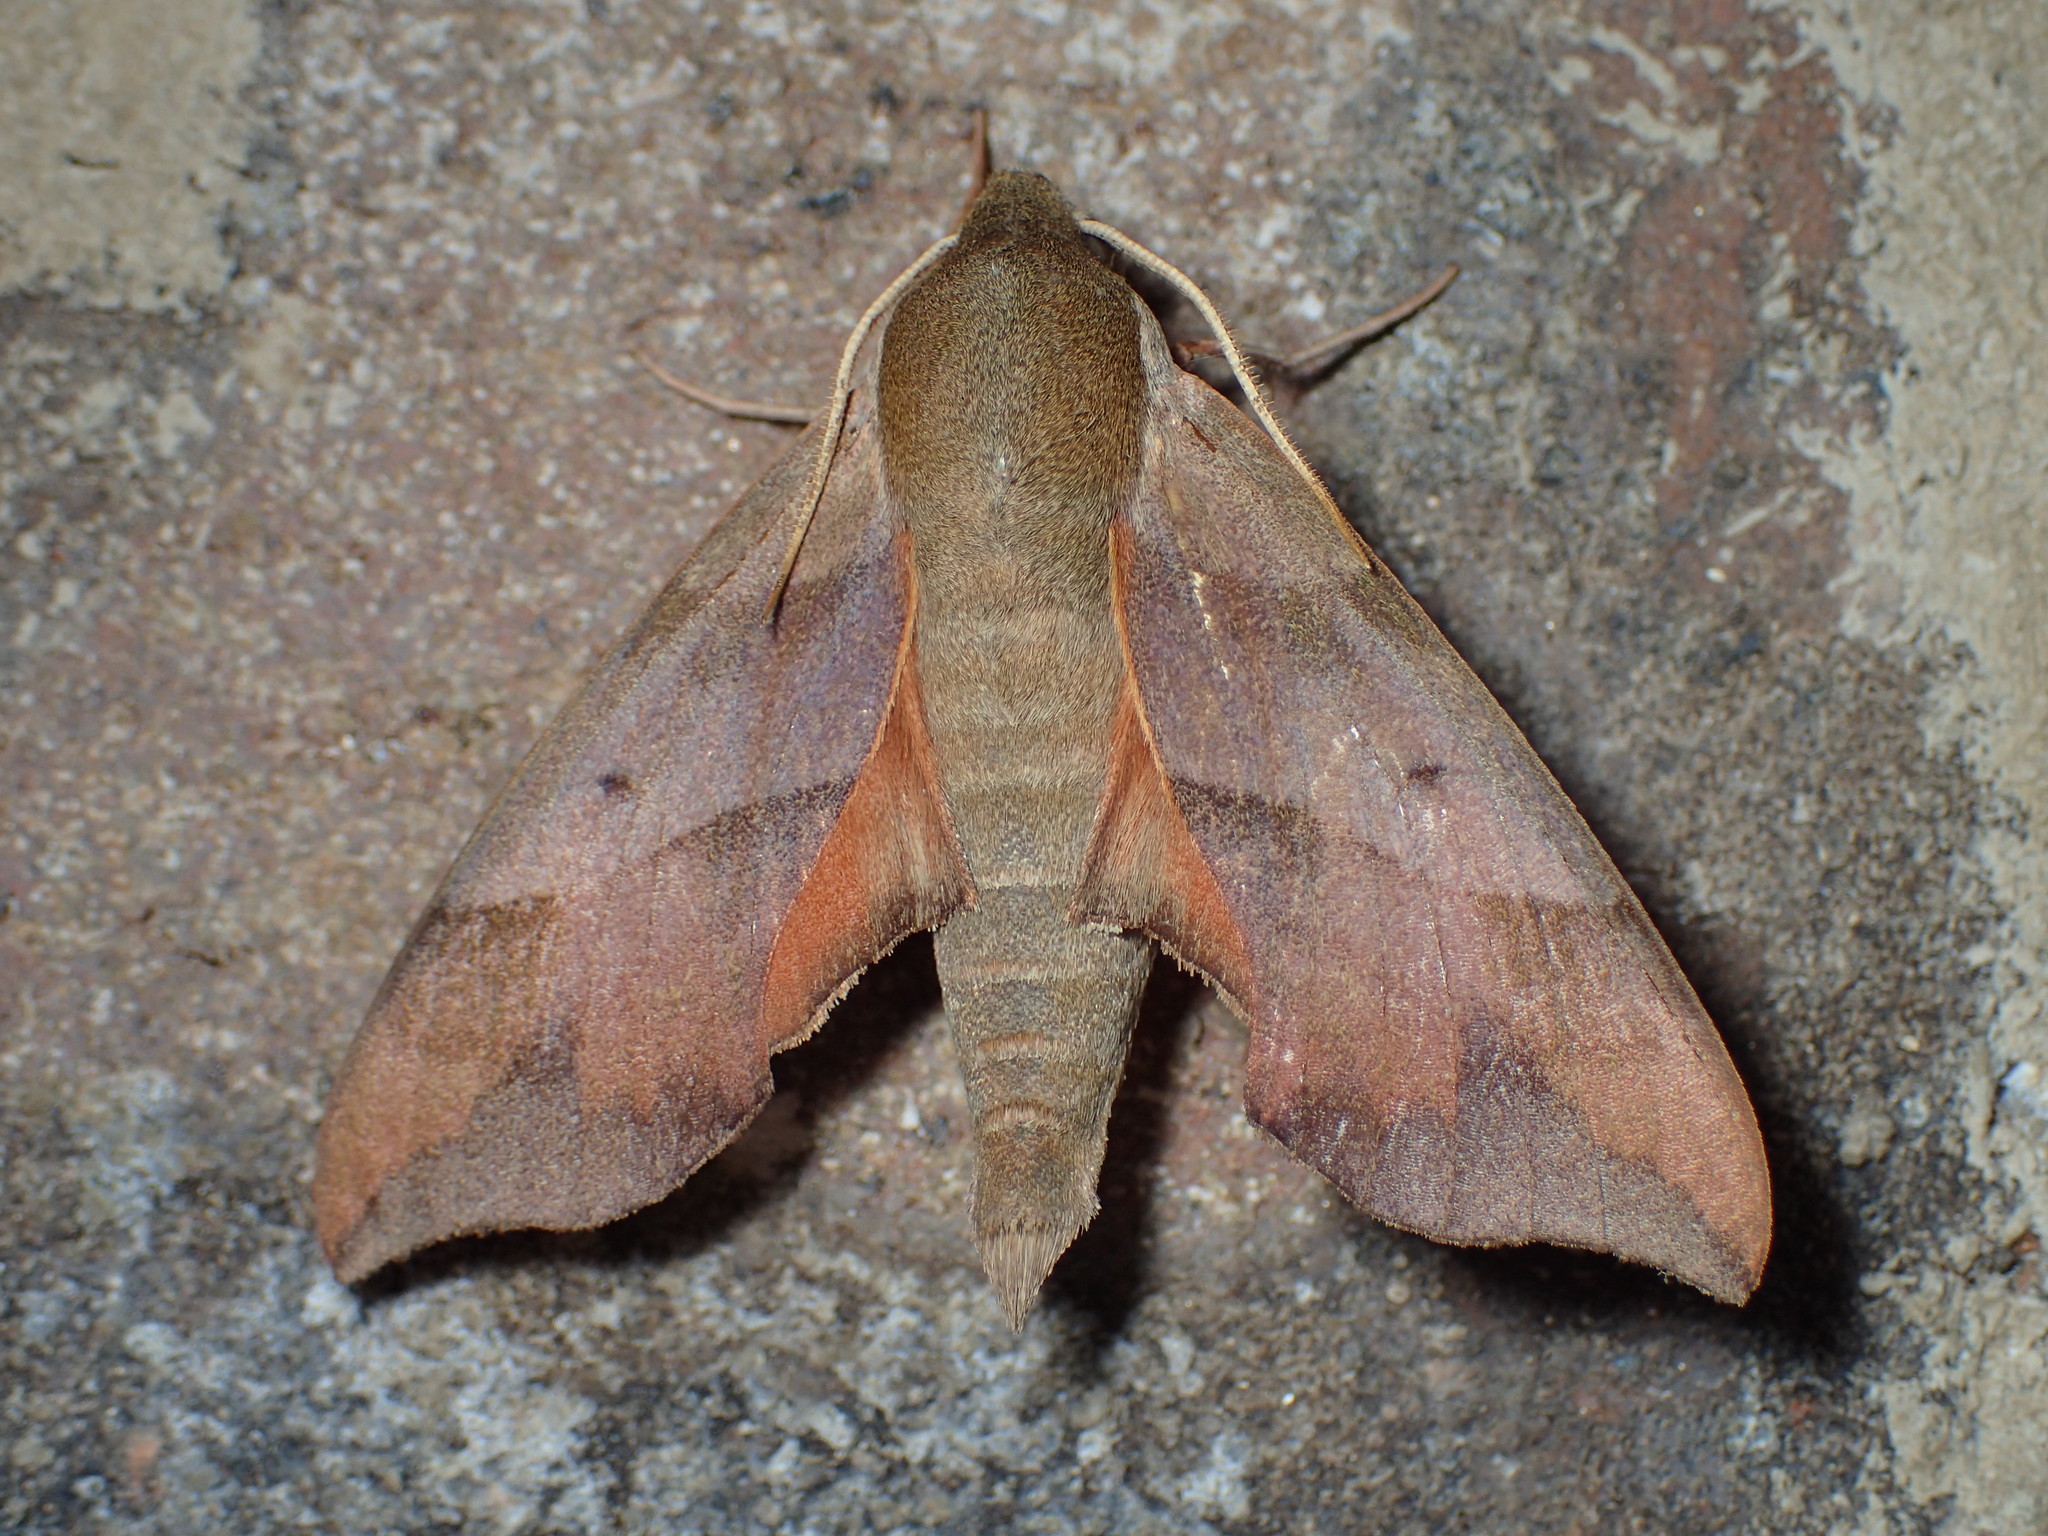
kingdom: Animalia
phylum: Arthropoda
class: Insecta
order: Lepidoptera
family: Sphingidae
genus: Darapsa
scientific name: Darapsa myron
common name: Hog sphinx
